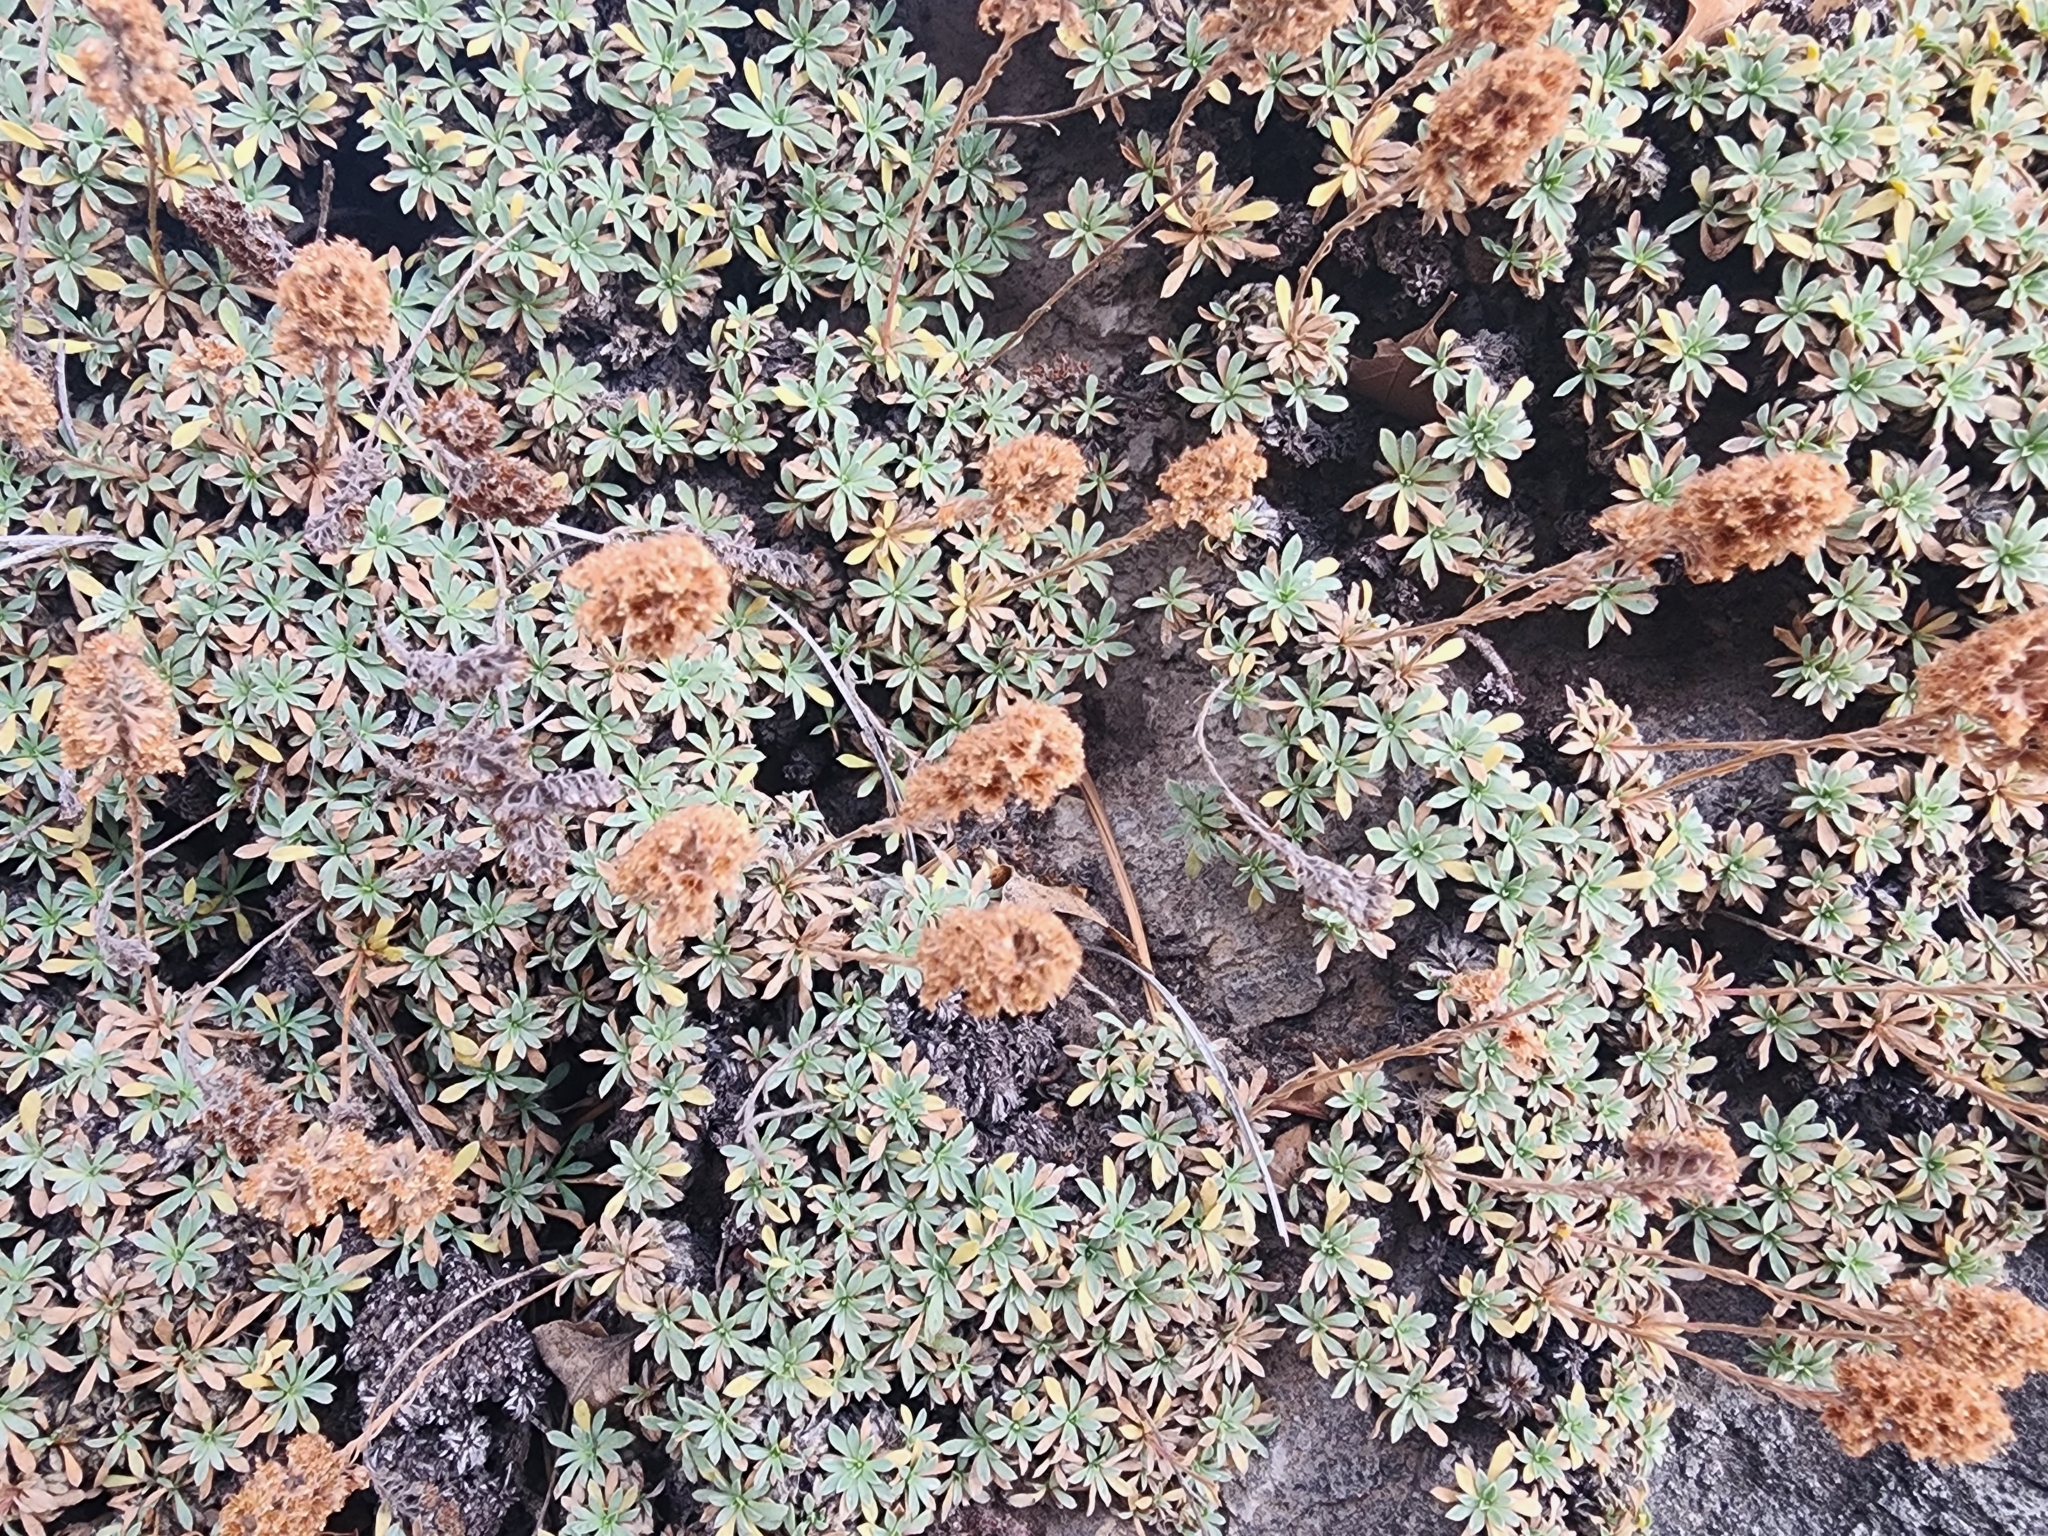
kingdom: Plantae
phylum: Tracheophyta
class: Magnoliopsida
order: Rosales
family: Rosaceae
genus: Petrophytum
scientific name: Petrophytum caespitosum
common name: Mat rockspirea
